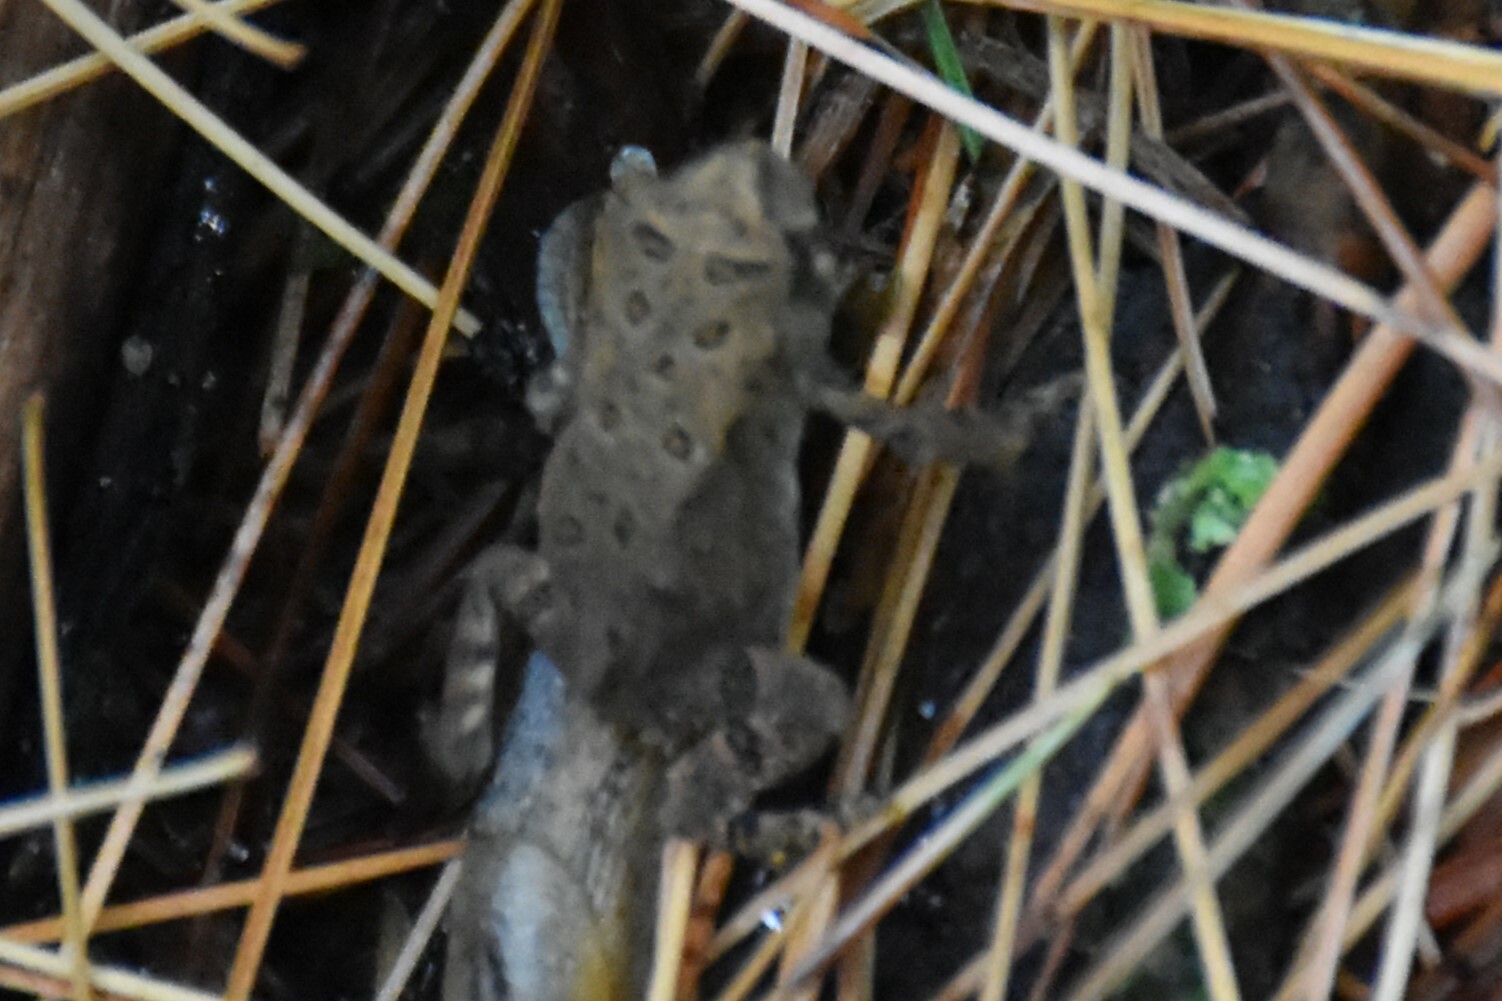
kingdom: Animalia
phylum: Chordata
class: Amphibia
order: Anura
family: Bufonidae
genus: Anaxyrus
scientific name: Anaxyrus americanus
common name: American toad
